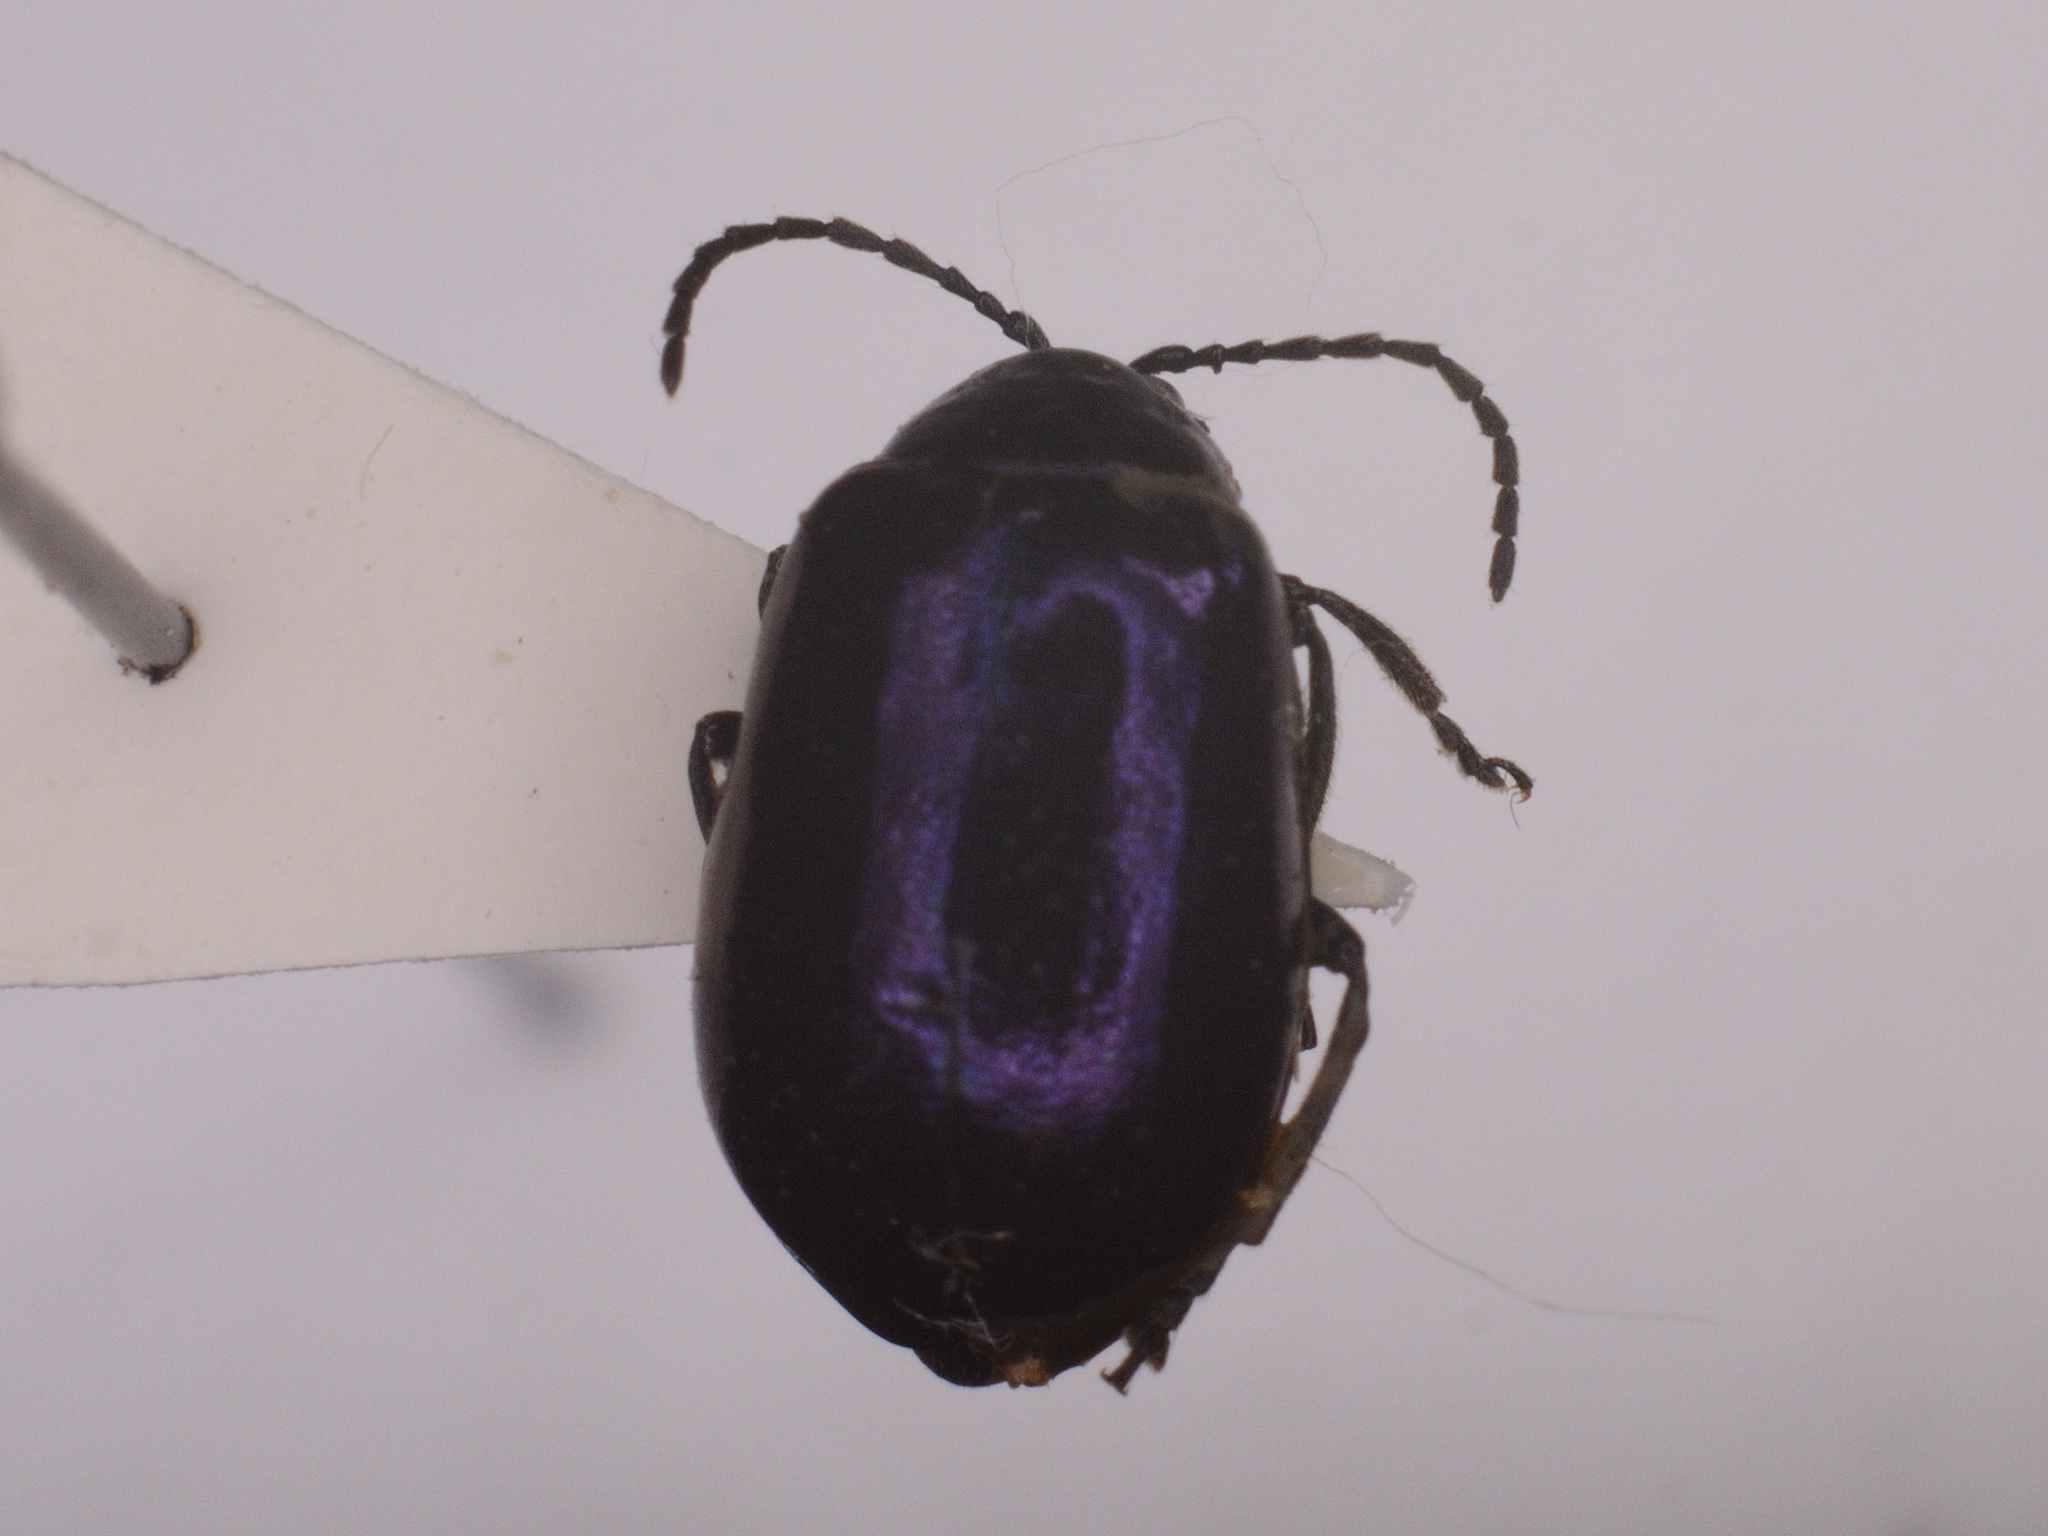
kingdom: Animalia
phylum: Arthropoda
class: Insecta
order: Coleoptera
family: Chrysomelidae
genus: Agelastica
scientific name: Agelastica alni
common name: Alder leaf beetle
